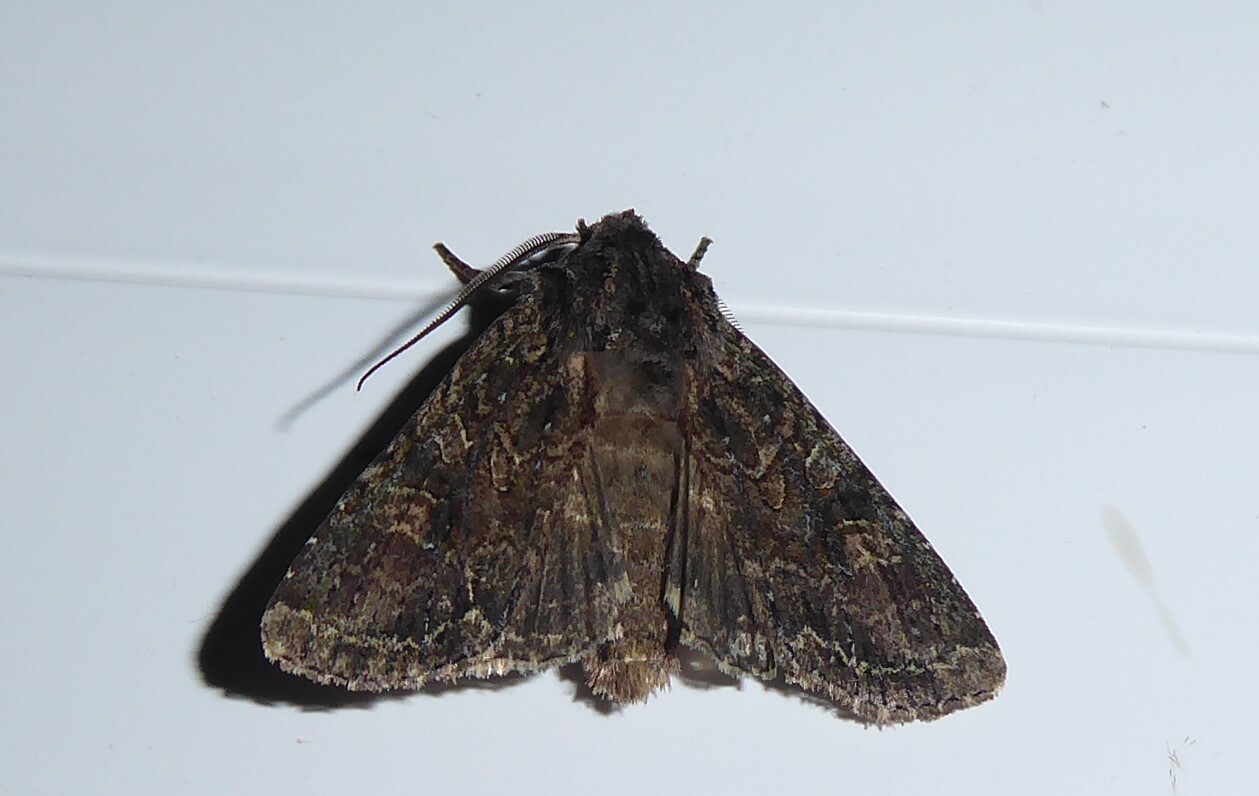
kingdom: Animalia
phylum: Arthropoda
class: Insecta
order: Lepidoptera
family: Noctuidae
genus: Ichneutica
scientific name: Ichneutica mutans
